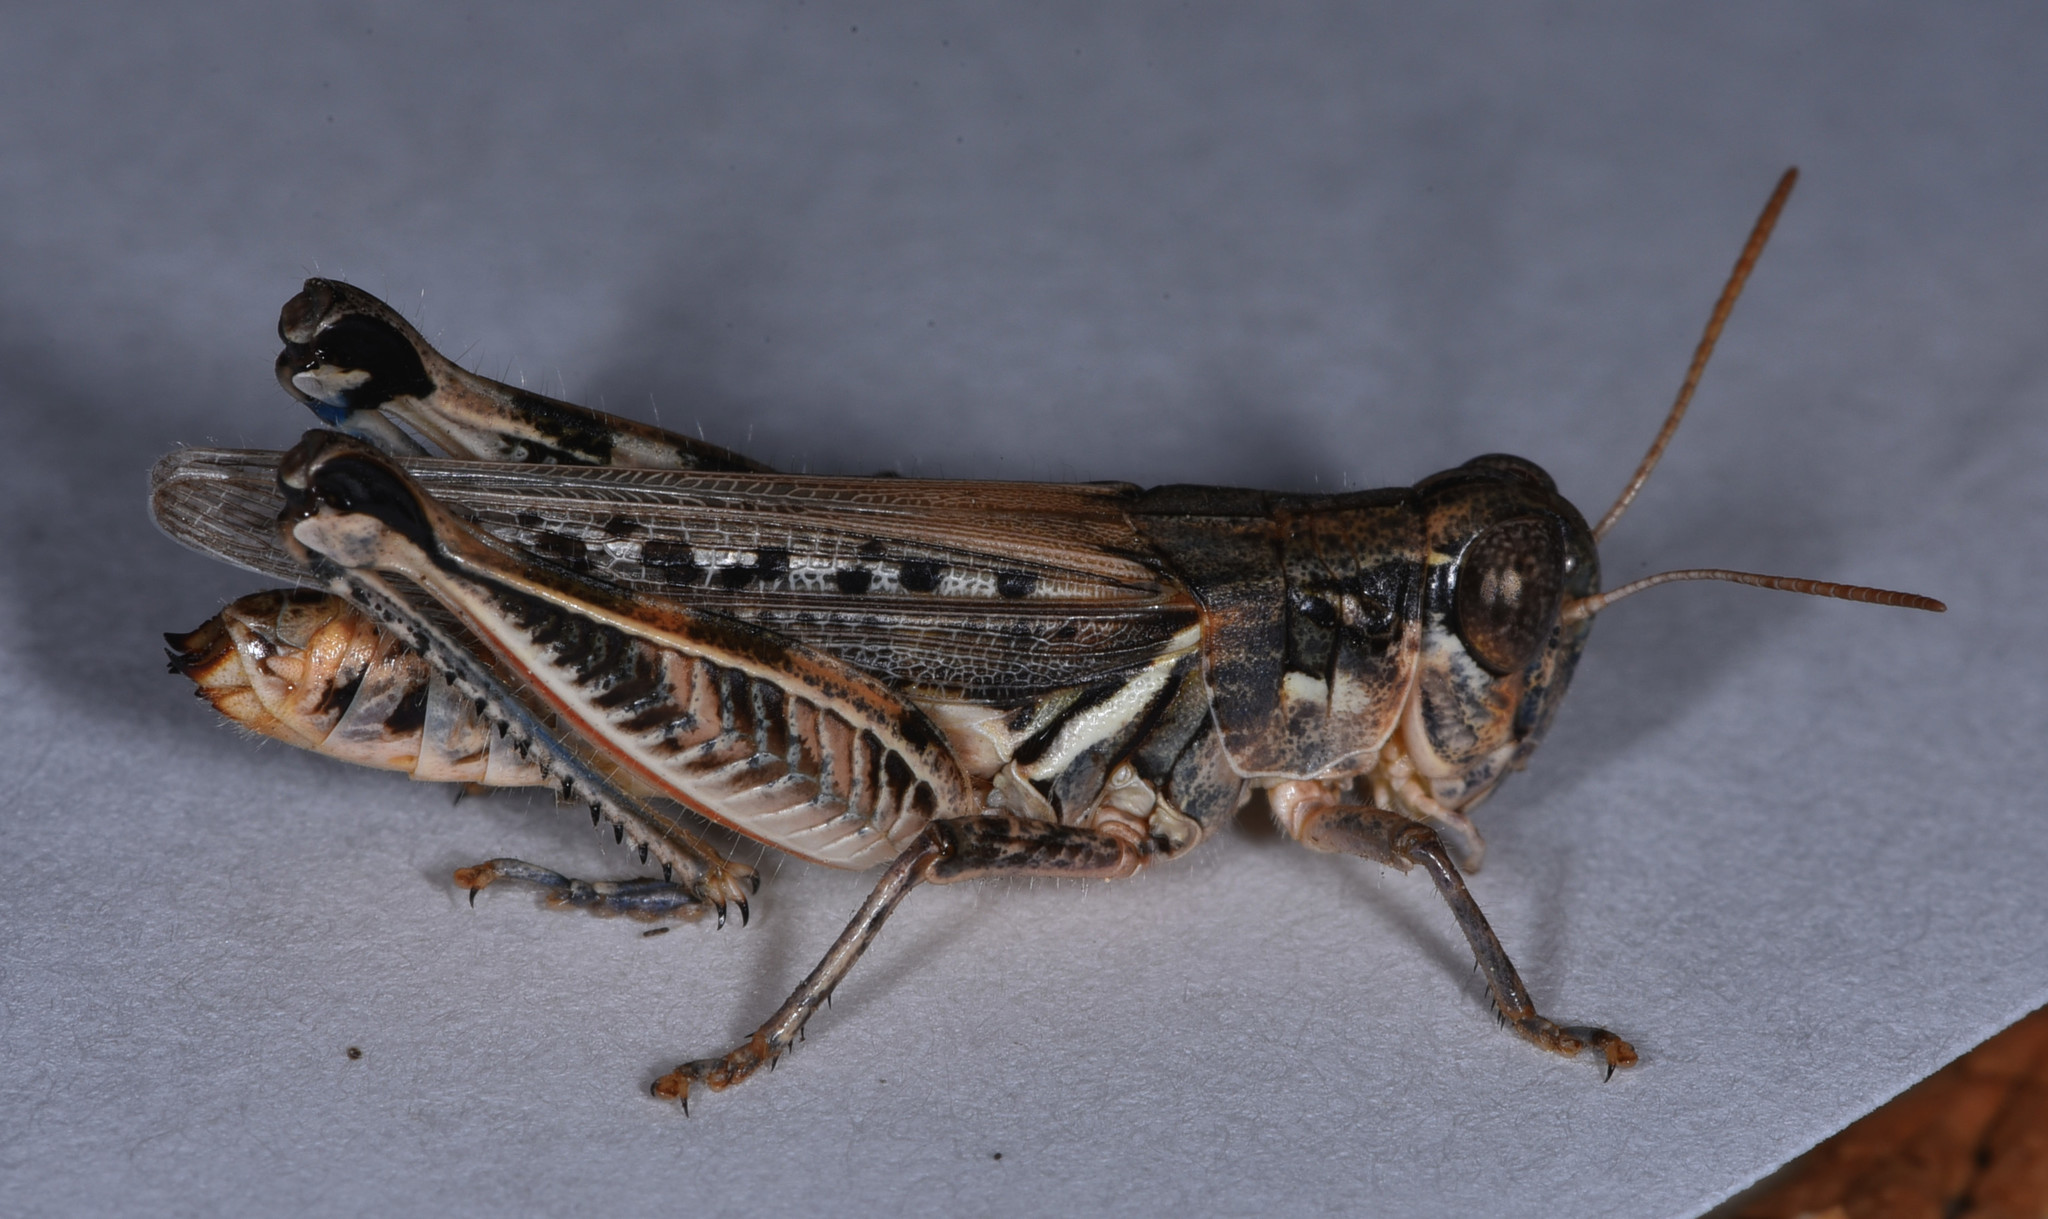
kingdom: Animalia
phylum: Arthropoda
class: Insecta
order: Orthoptera
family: Acrididae
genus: Melanoplus
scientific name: Melanoplus devastator
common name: Devastating grasshopper
